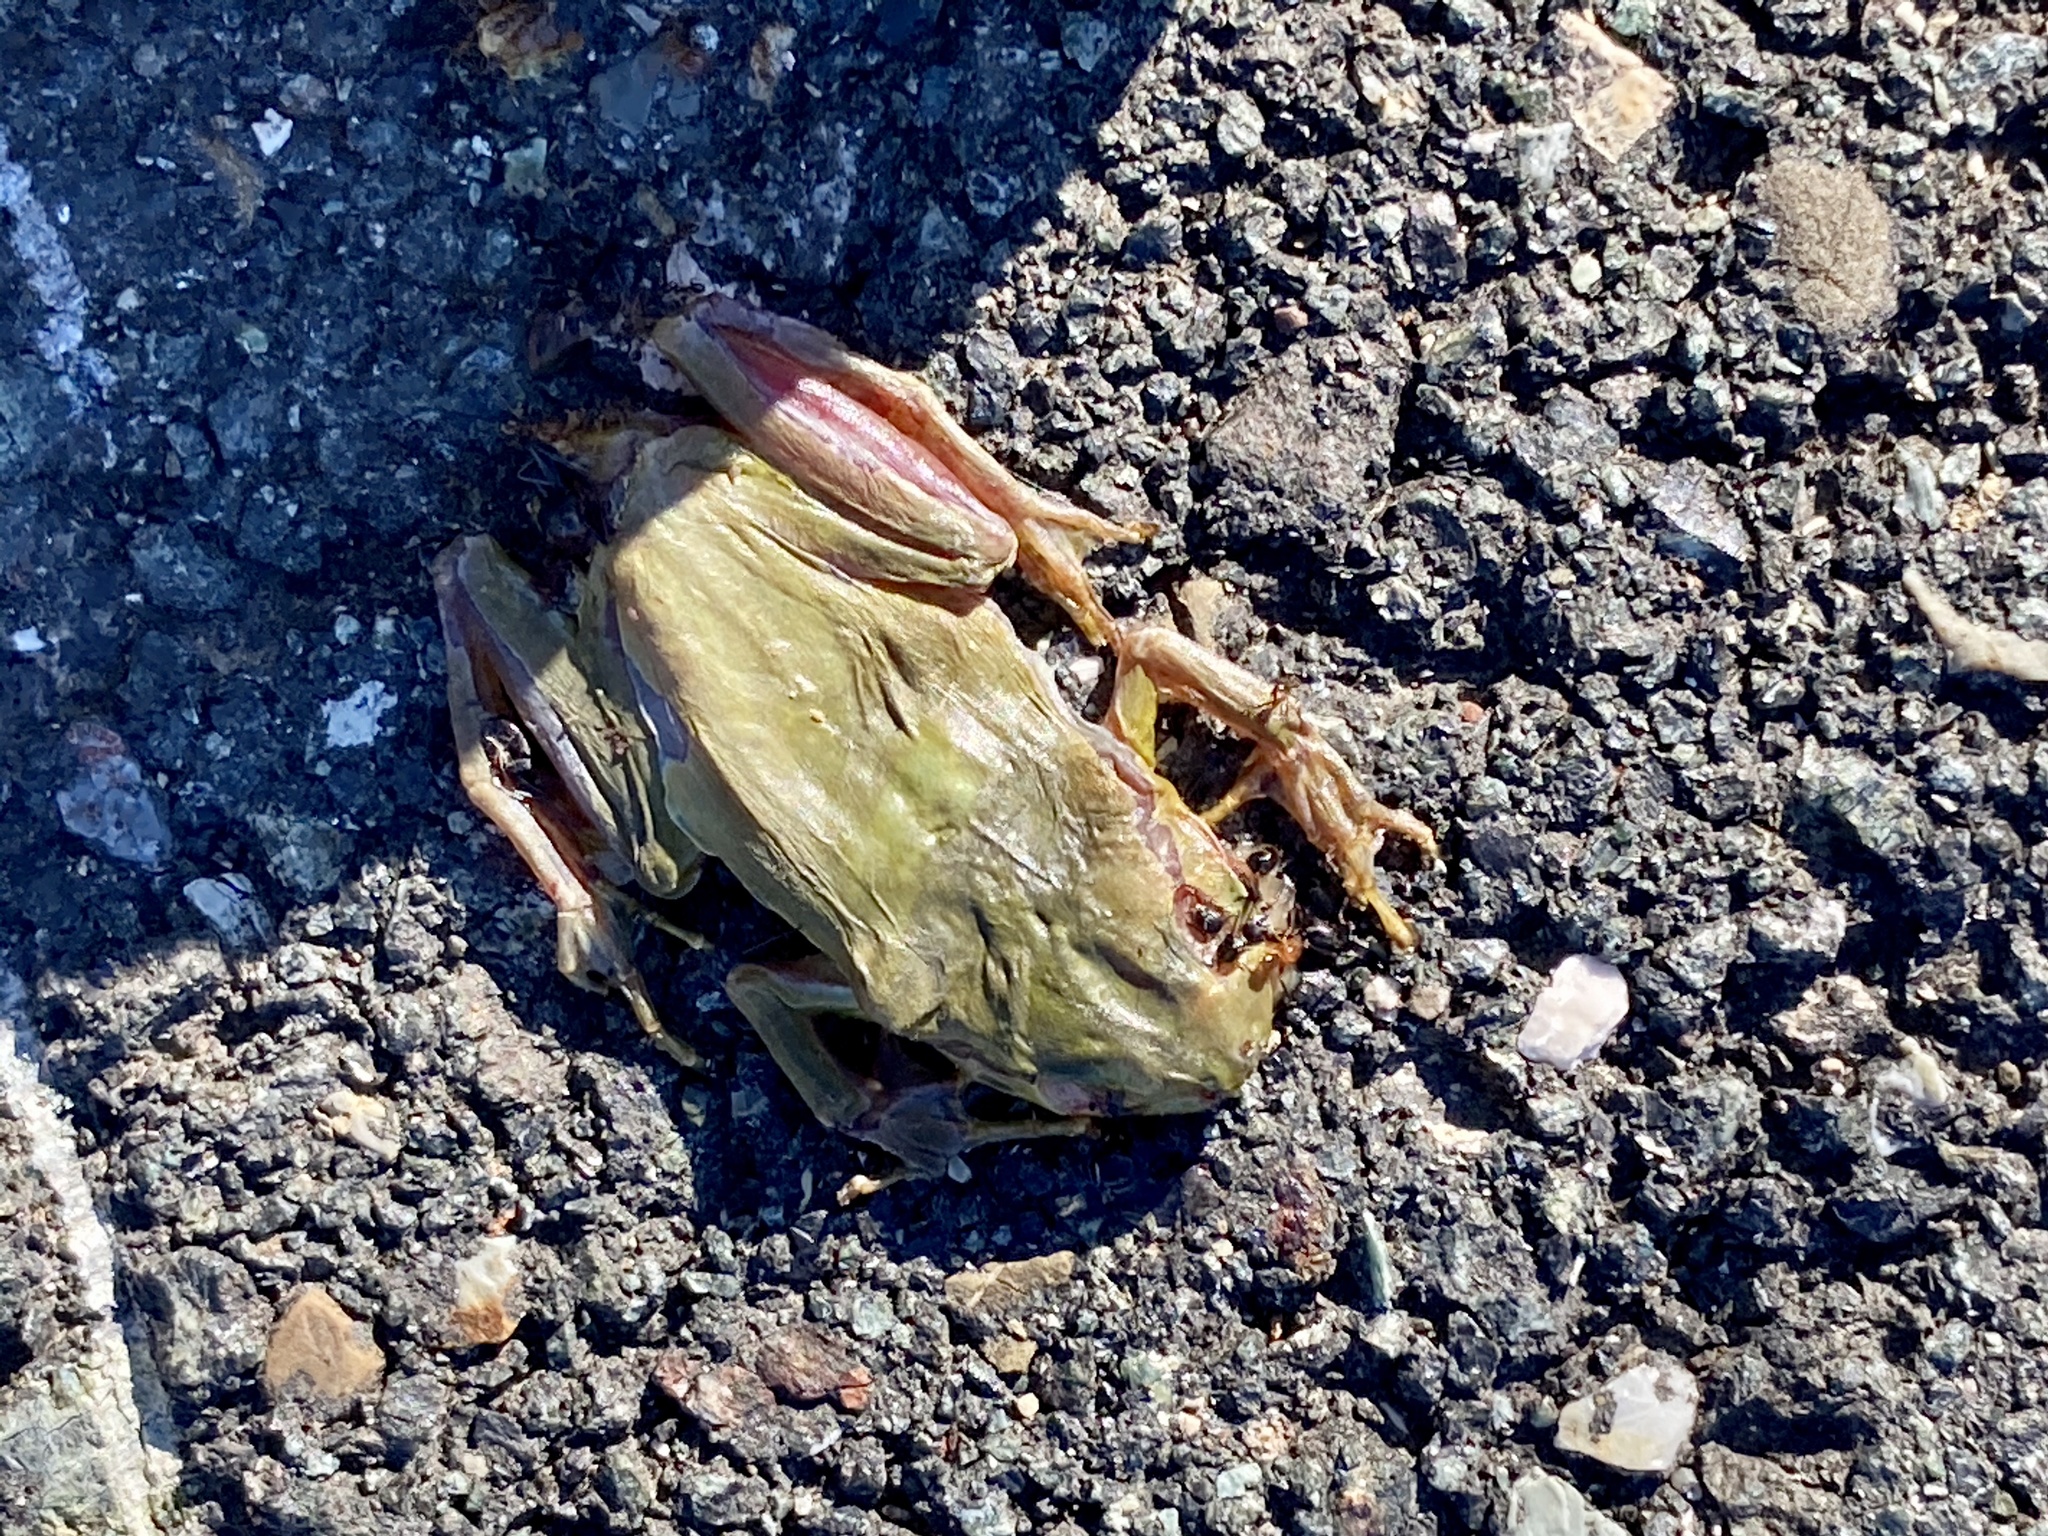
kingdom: Animalia
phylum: Chordata
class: Amphibia
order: Anura
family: Hylidae
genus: Hyla
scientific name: Hyla intermedia
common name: Italian tree frog
